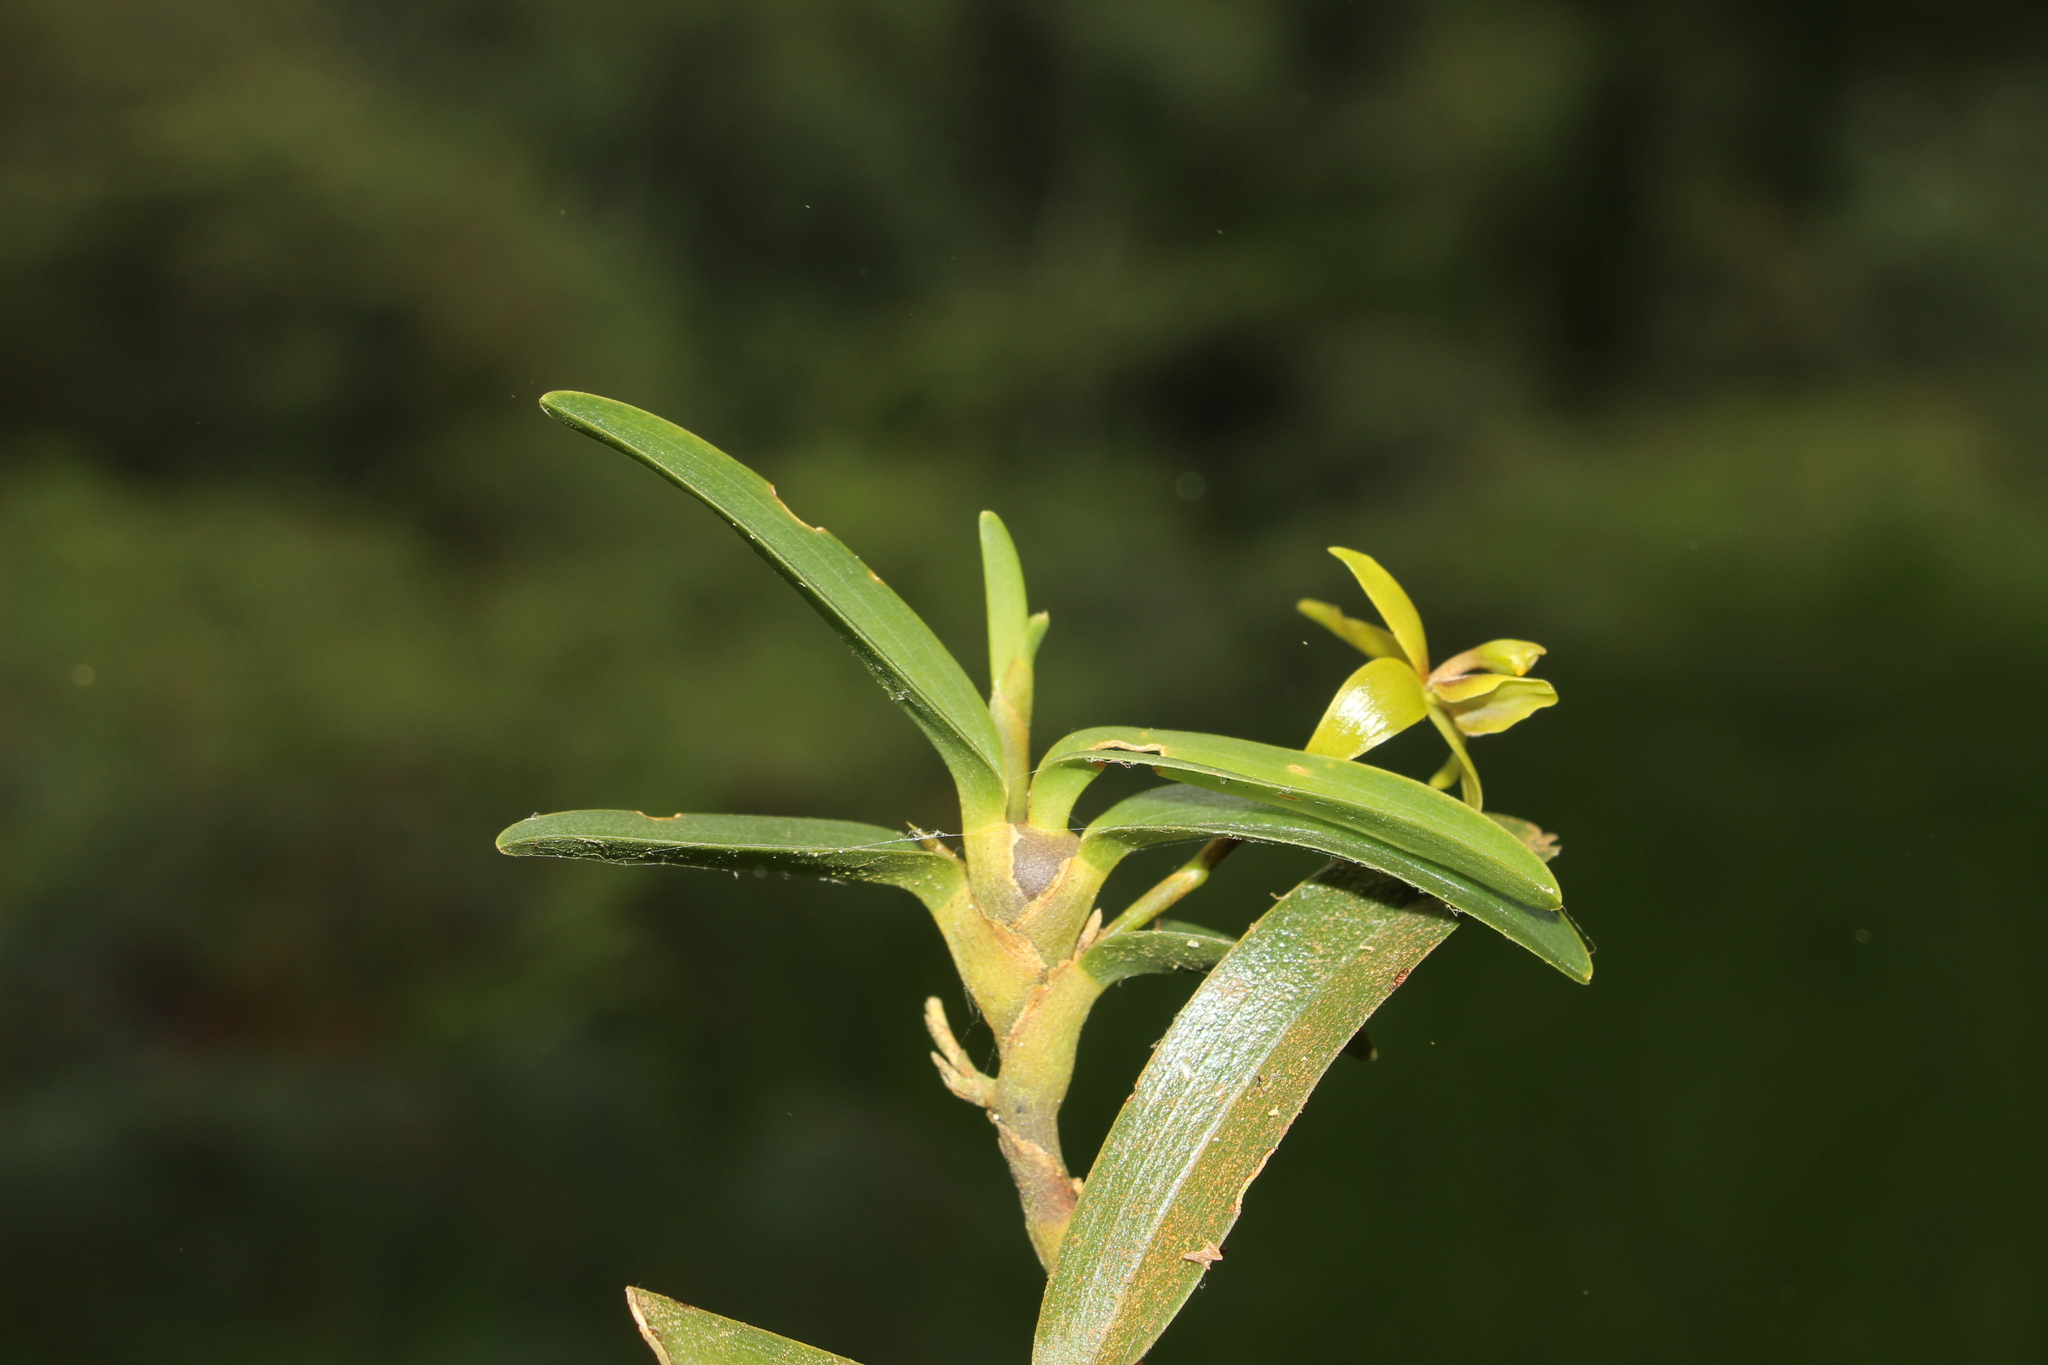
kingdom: Plantae
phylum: Tracheophyta
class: Liliopsida
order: Asparagales
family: Orchidaceae
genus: Maxillaria
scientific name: Maxillaria gerardi
